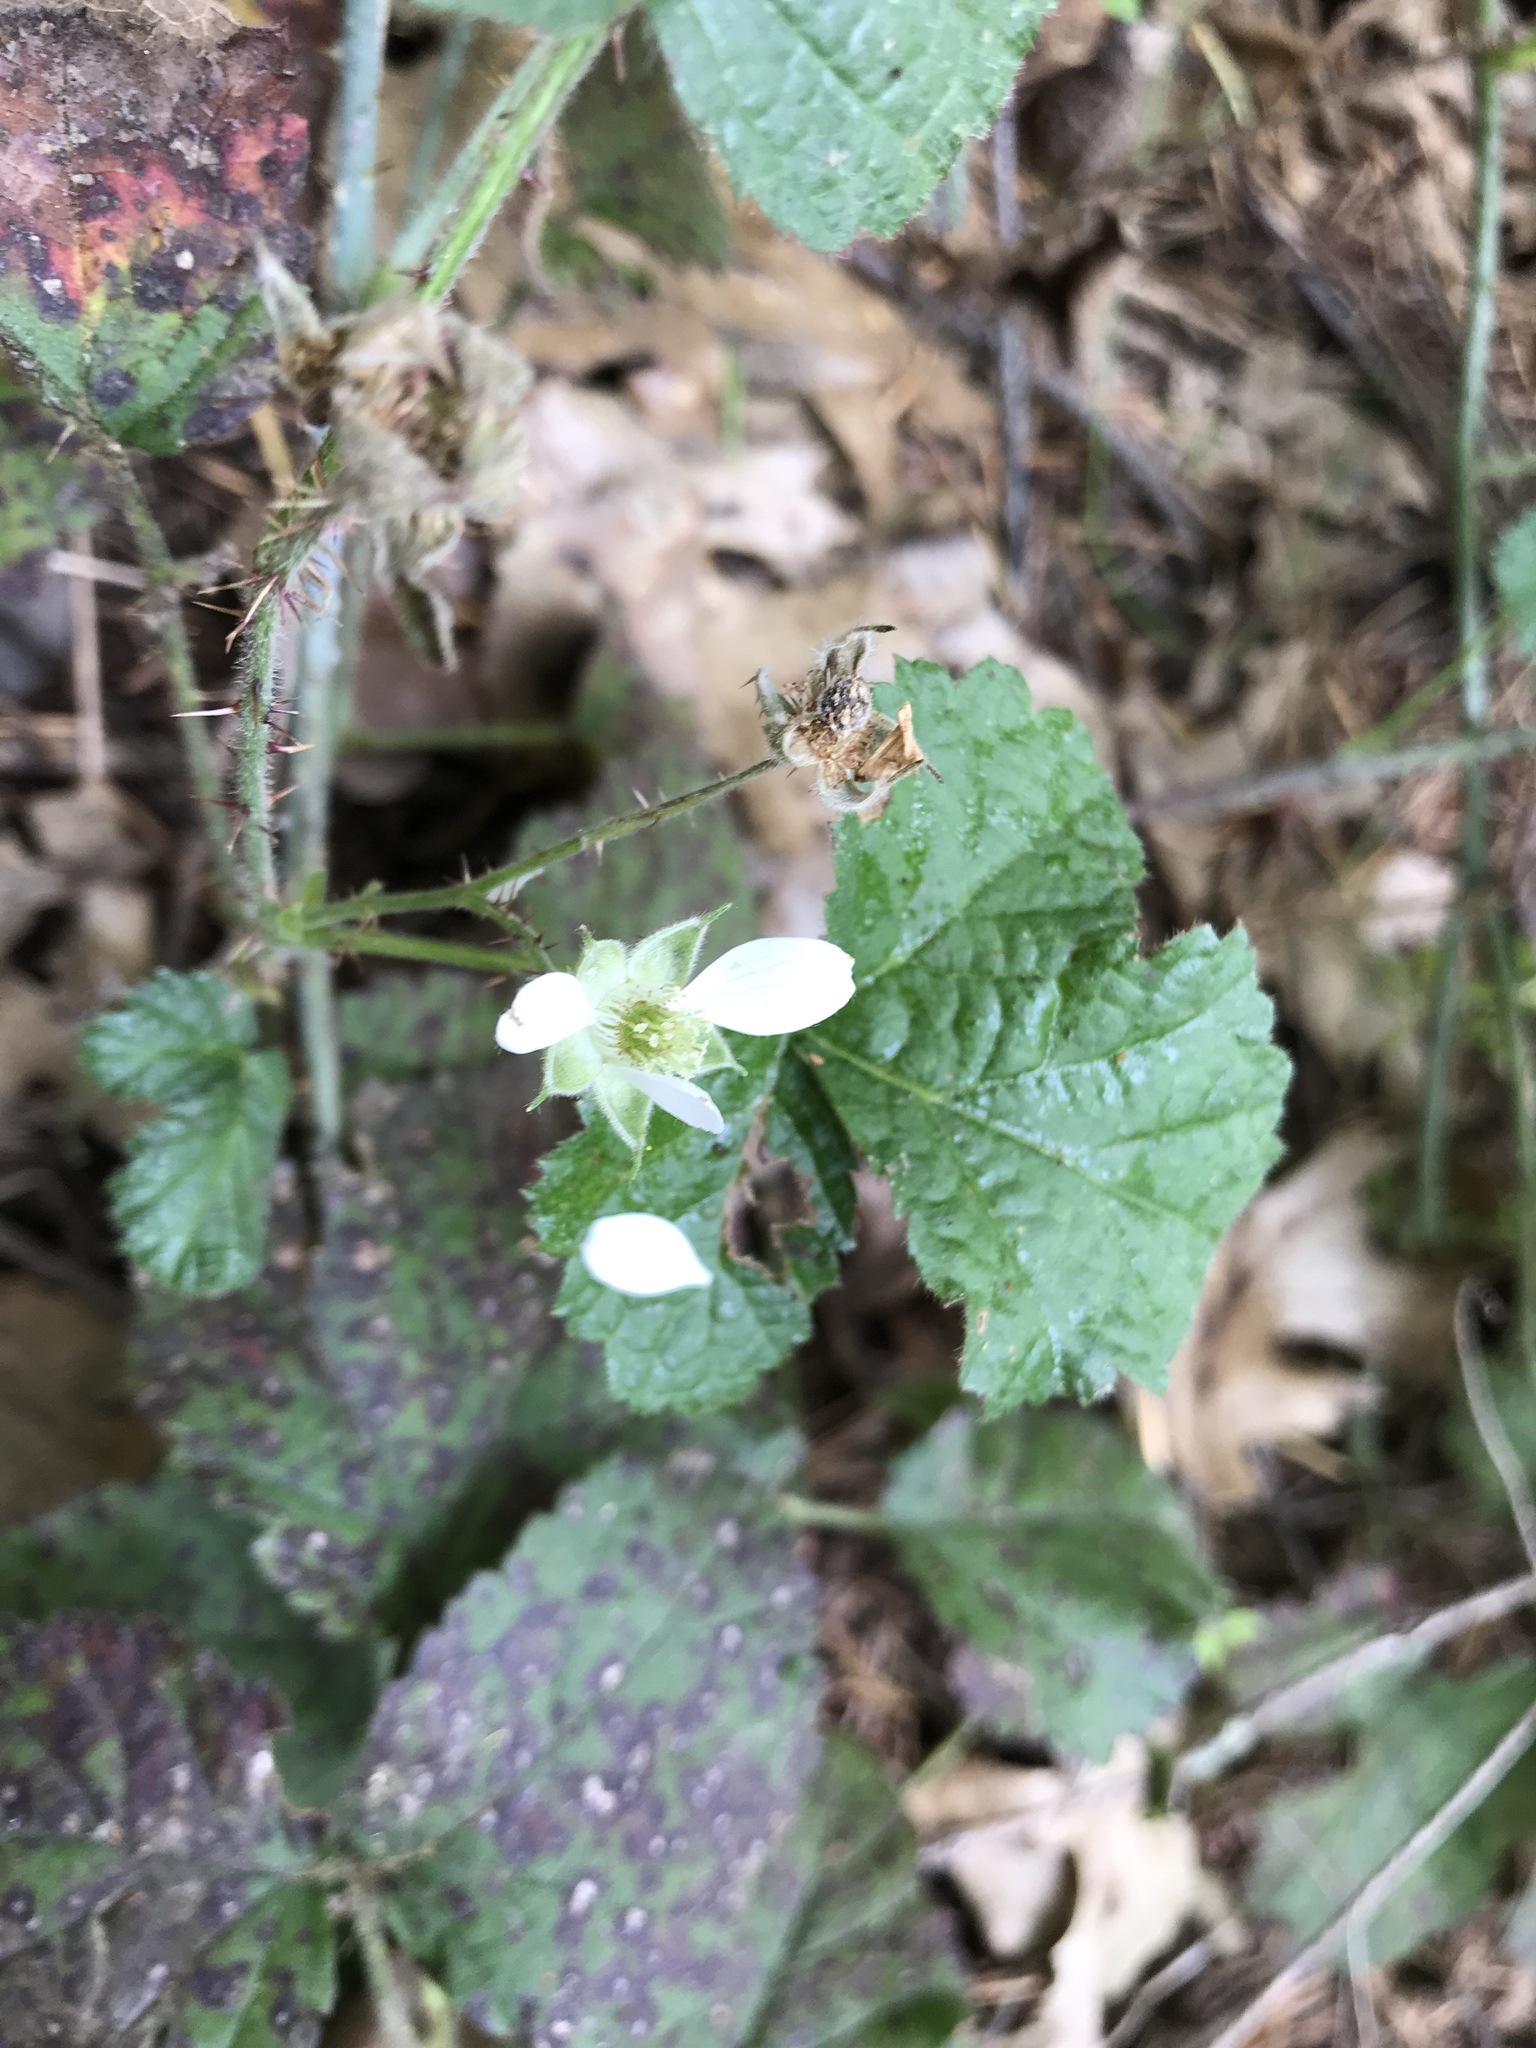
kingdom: Plantae
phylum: Tracheophyta
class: Magnoliopsida
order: Rosales
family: Rosaceae
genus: Rubus
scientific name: Rubus ursinus
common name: Pacific blackberry
